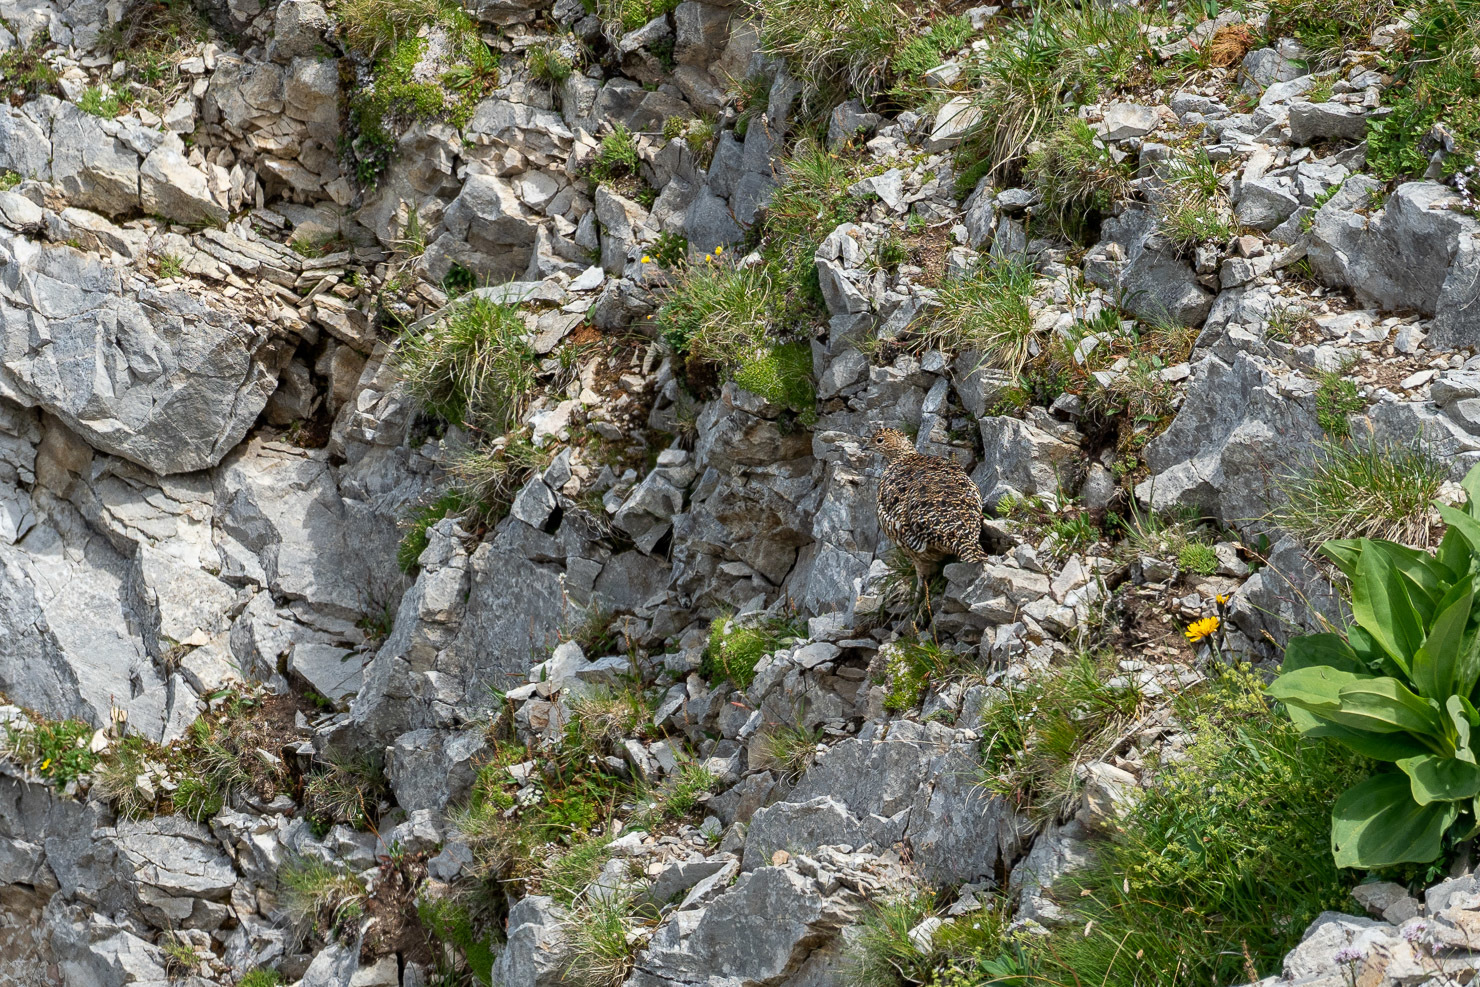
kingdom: Animalia
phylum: Chordata
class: Aves
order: Galliformes
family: Phasianidae
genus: Lagopus
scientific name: Lagopus muta
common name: Rock ptarmigan
